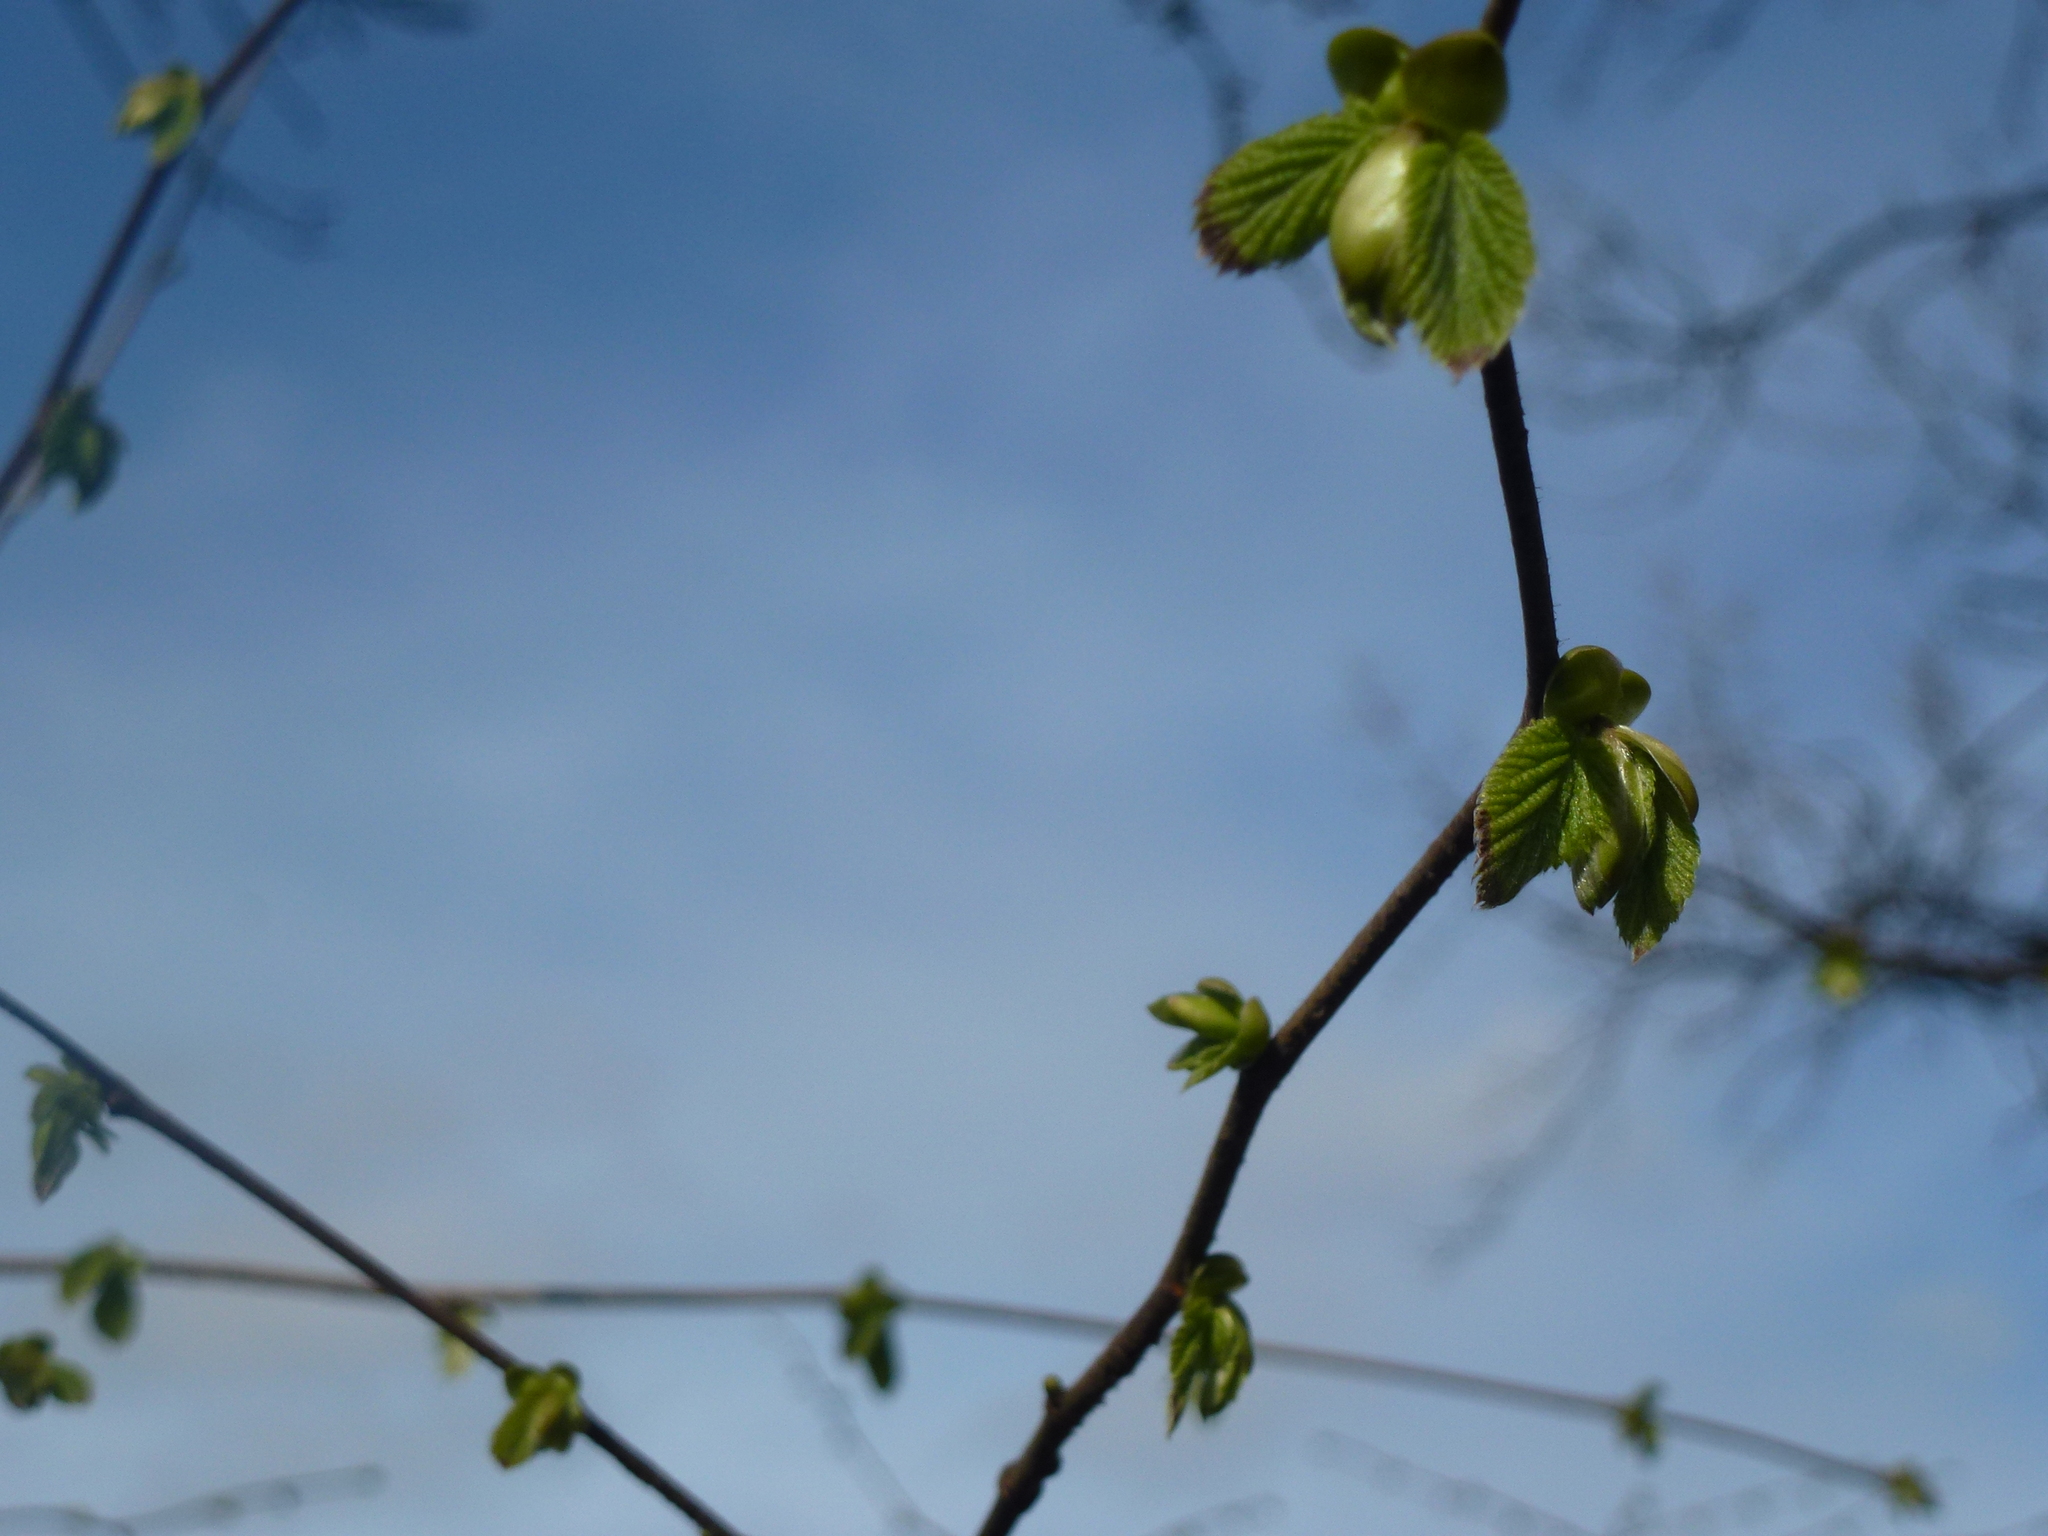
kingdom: Plantae
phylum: Tracheophyta
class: Magnoliopsida
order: Fagales
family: Betulaceae
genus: Corylus
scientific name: Corylus avellana
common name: European hazel
